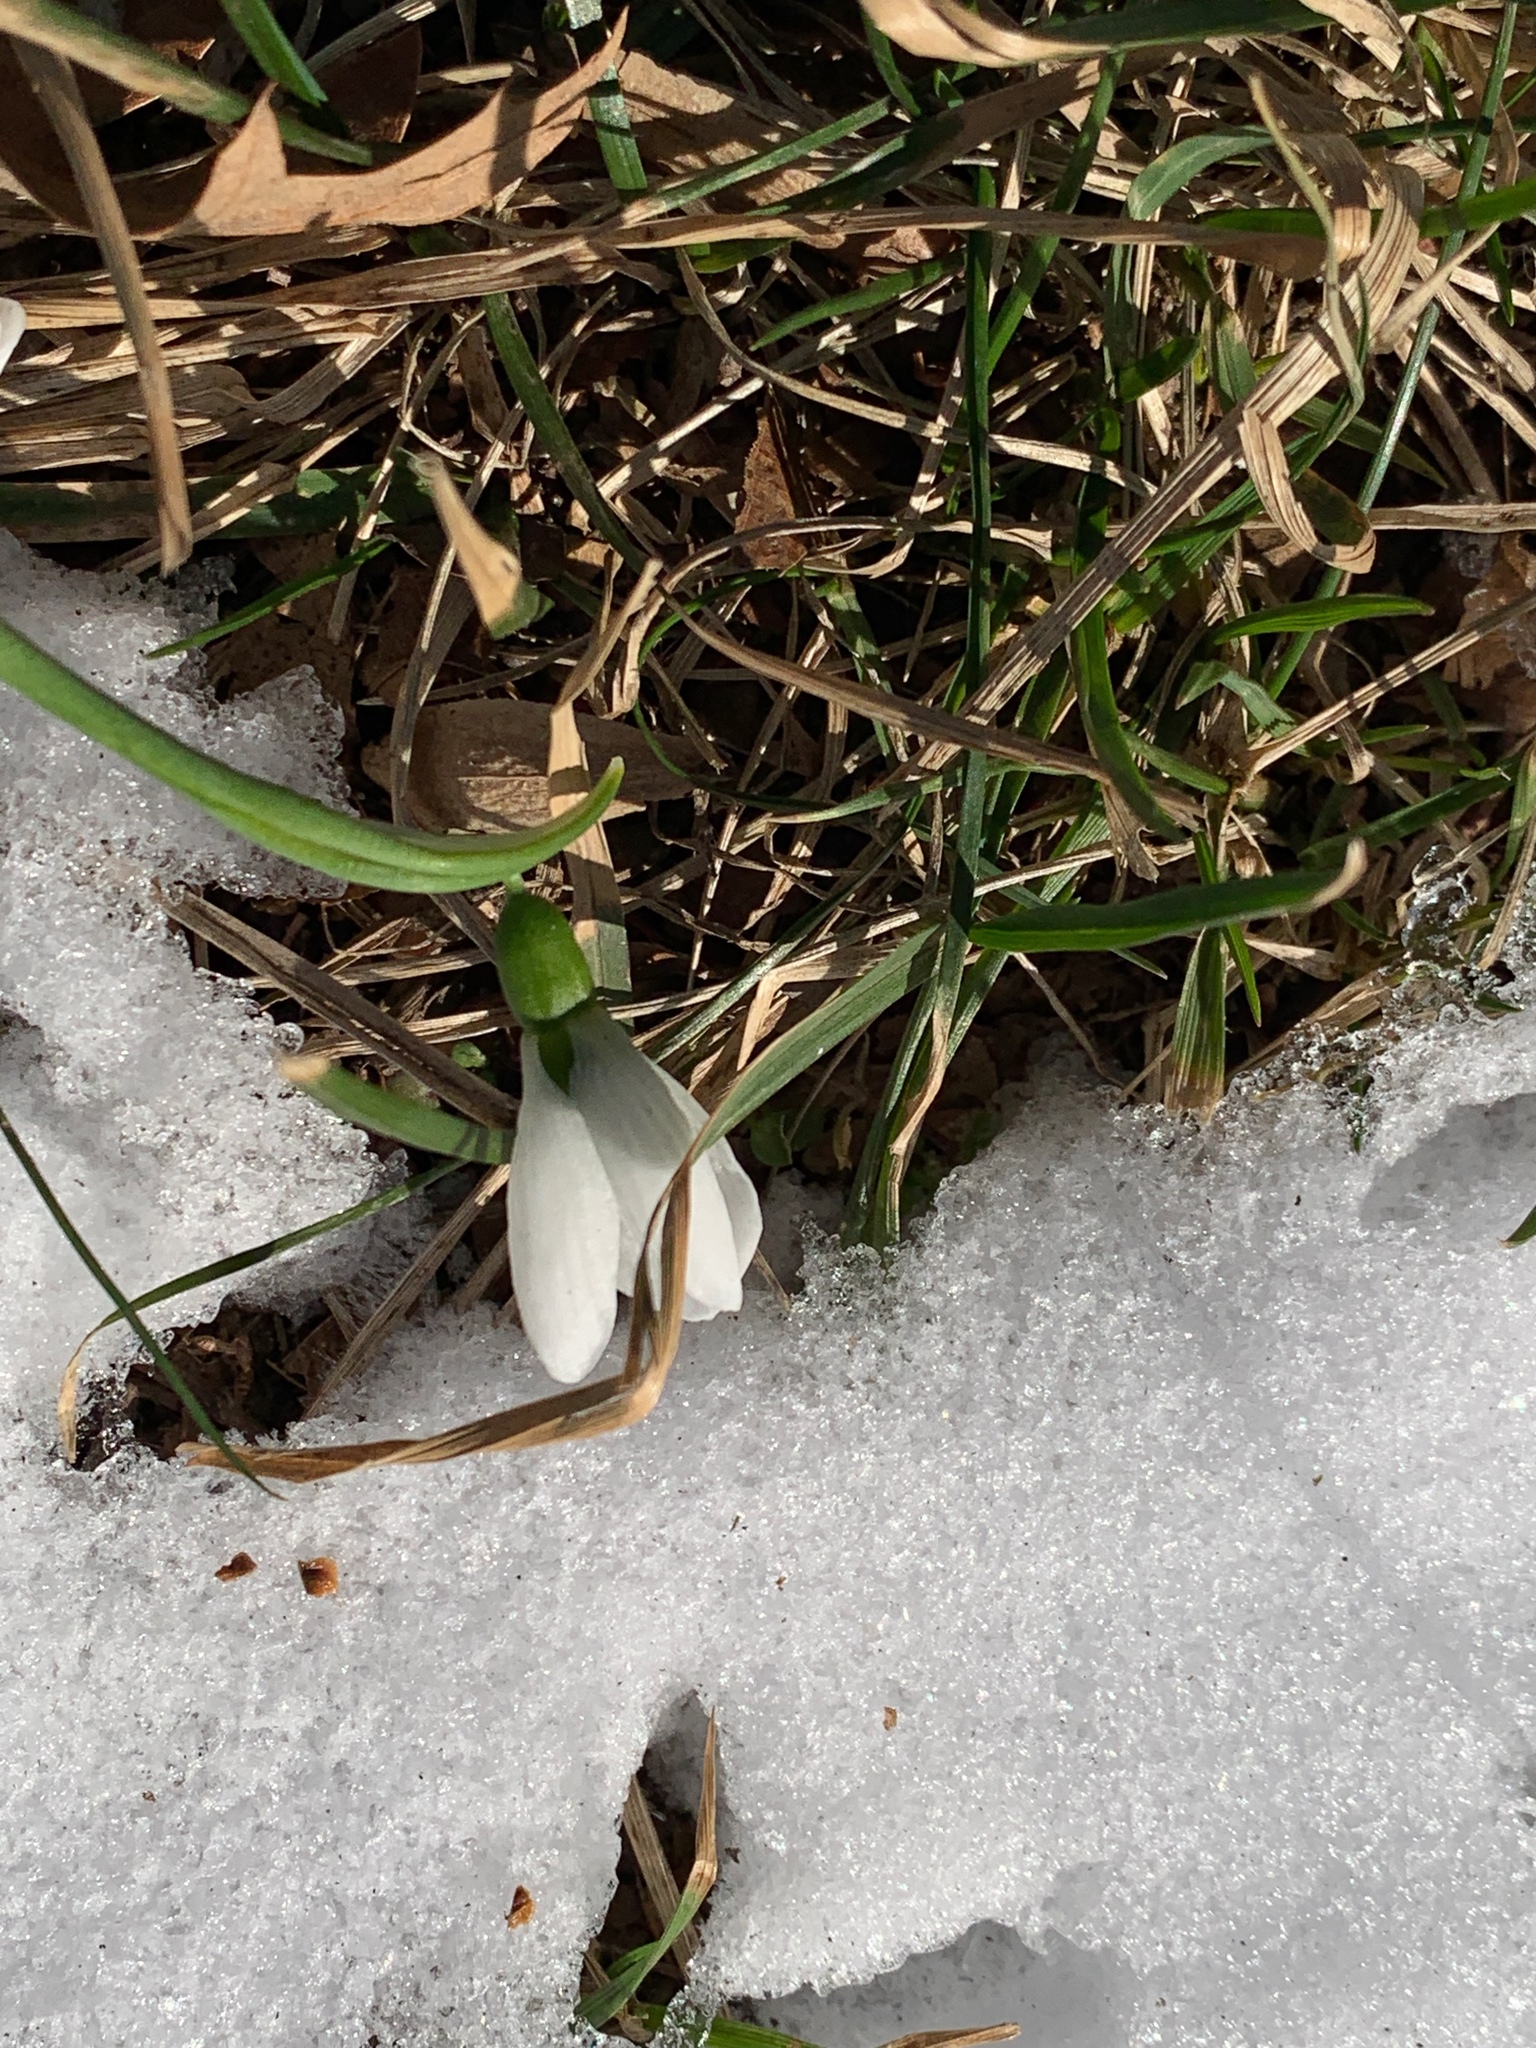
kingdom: Plantae
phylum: Tracheophyta
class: Liliopsida
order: Asparagales
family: Amaryllidaceae
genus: Galanthus
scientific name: Galanthus elwesii
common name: Greater snowdrop
